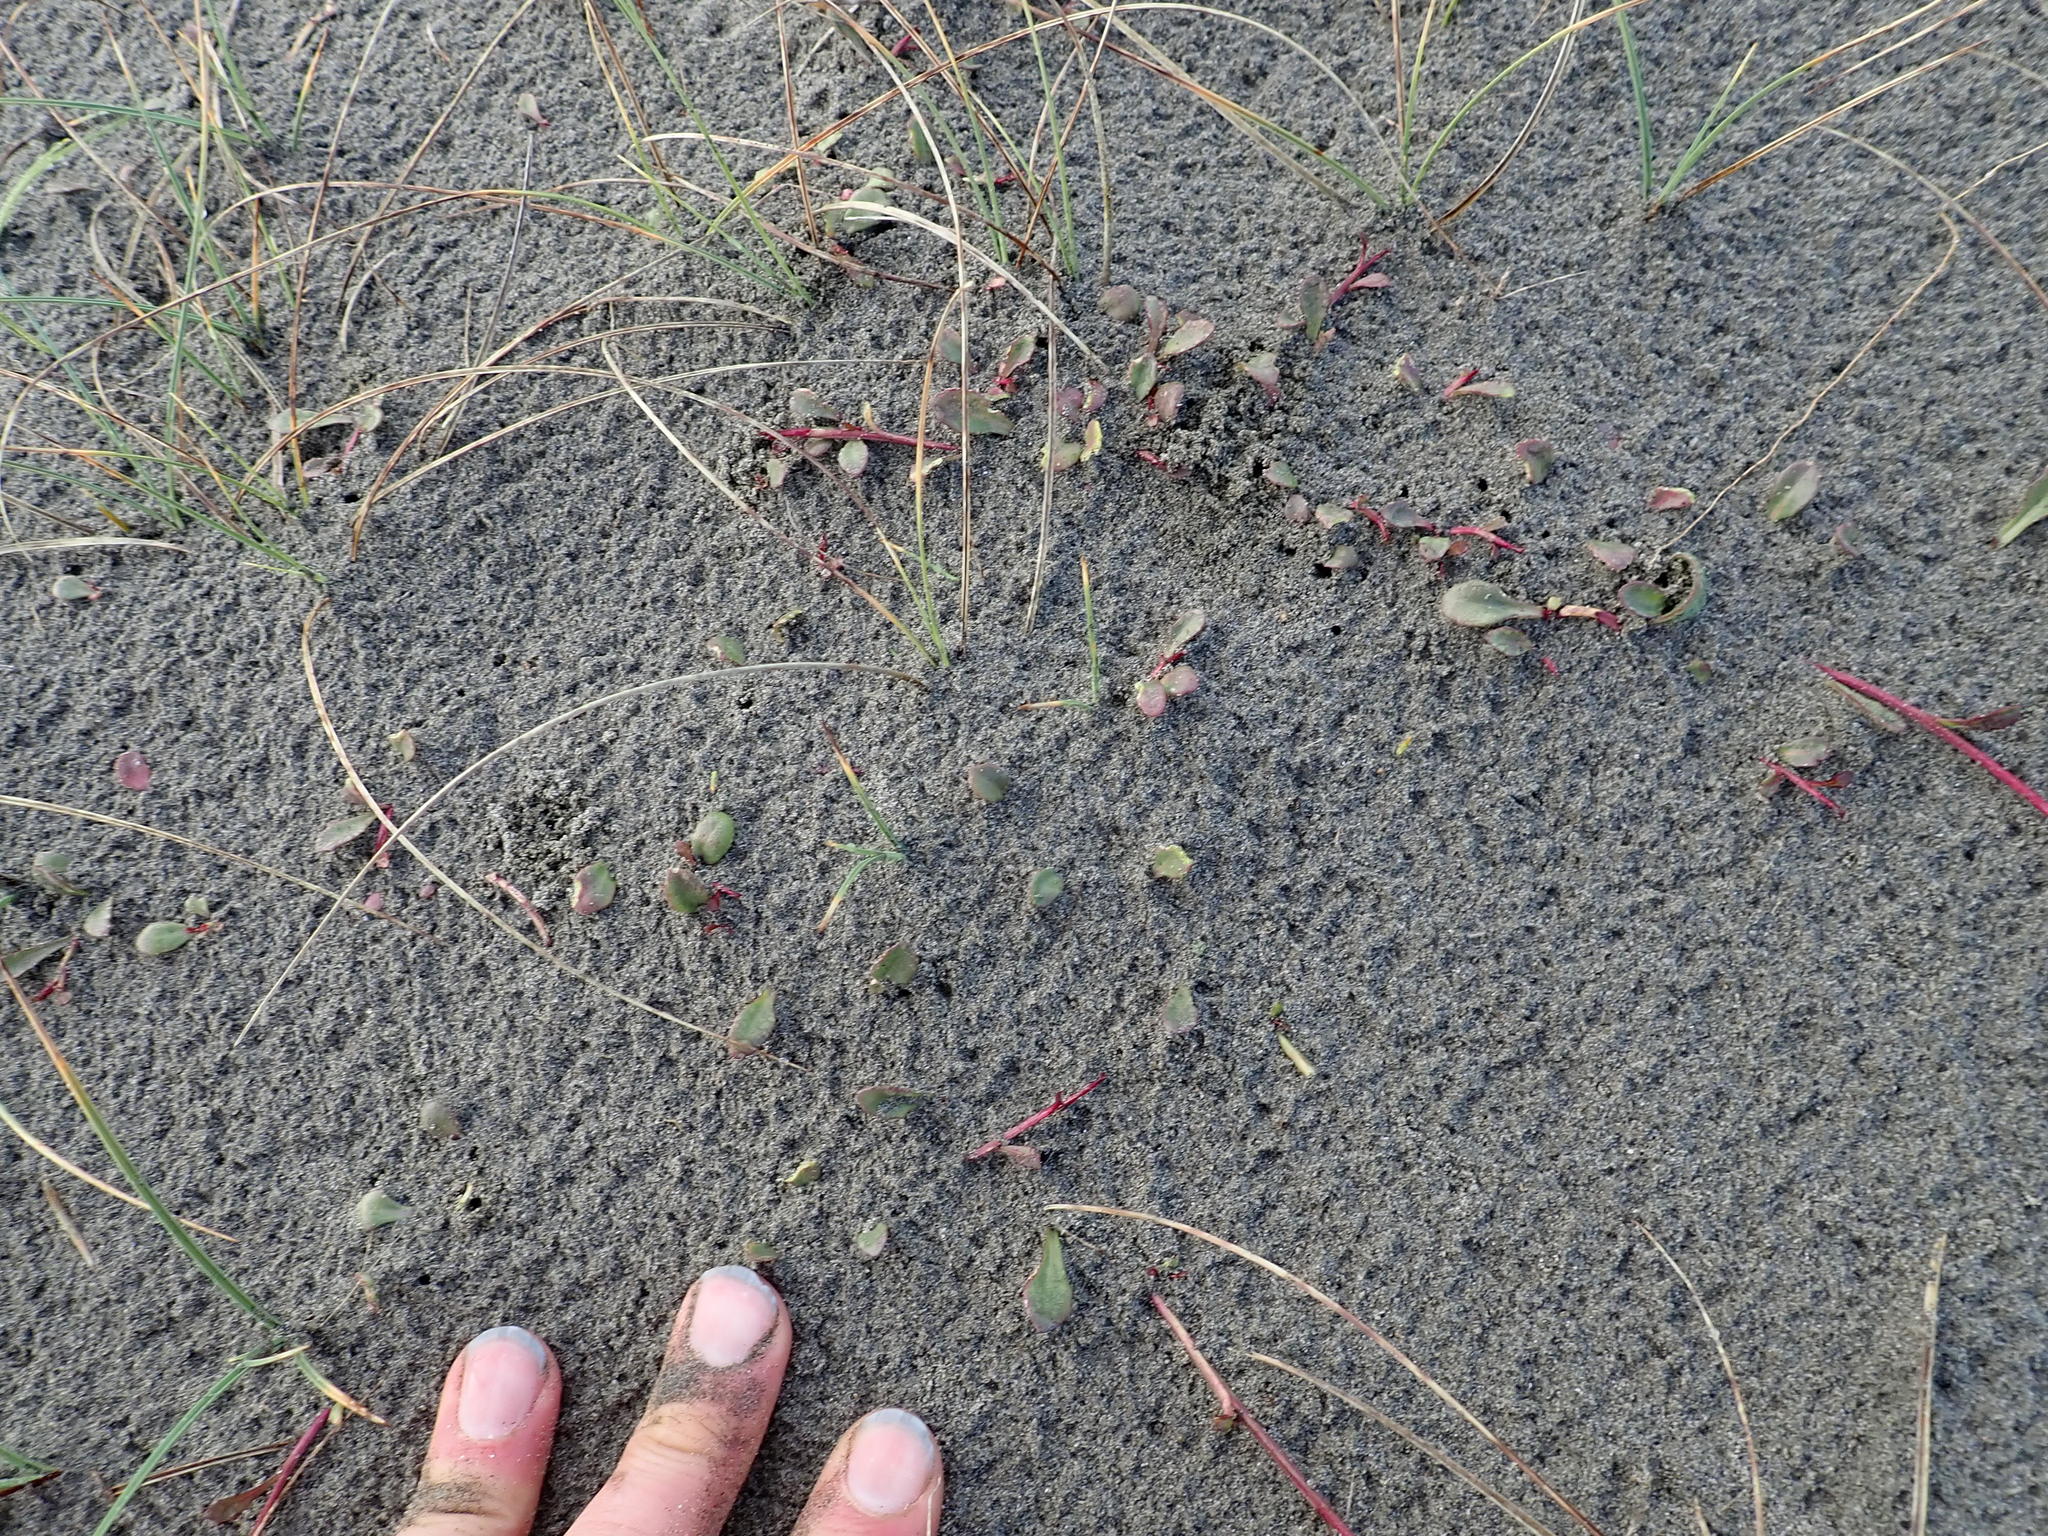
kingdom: Plantae
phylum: Tracheophyta
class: Magnoliopsida
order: Asterales
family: Campanulaceae
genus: Lobelia
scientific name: Lobelia anceps
